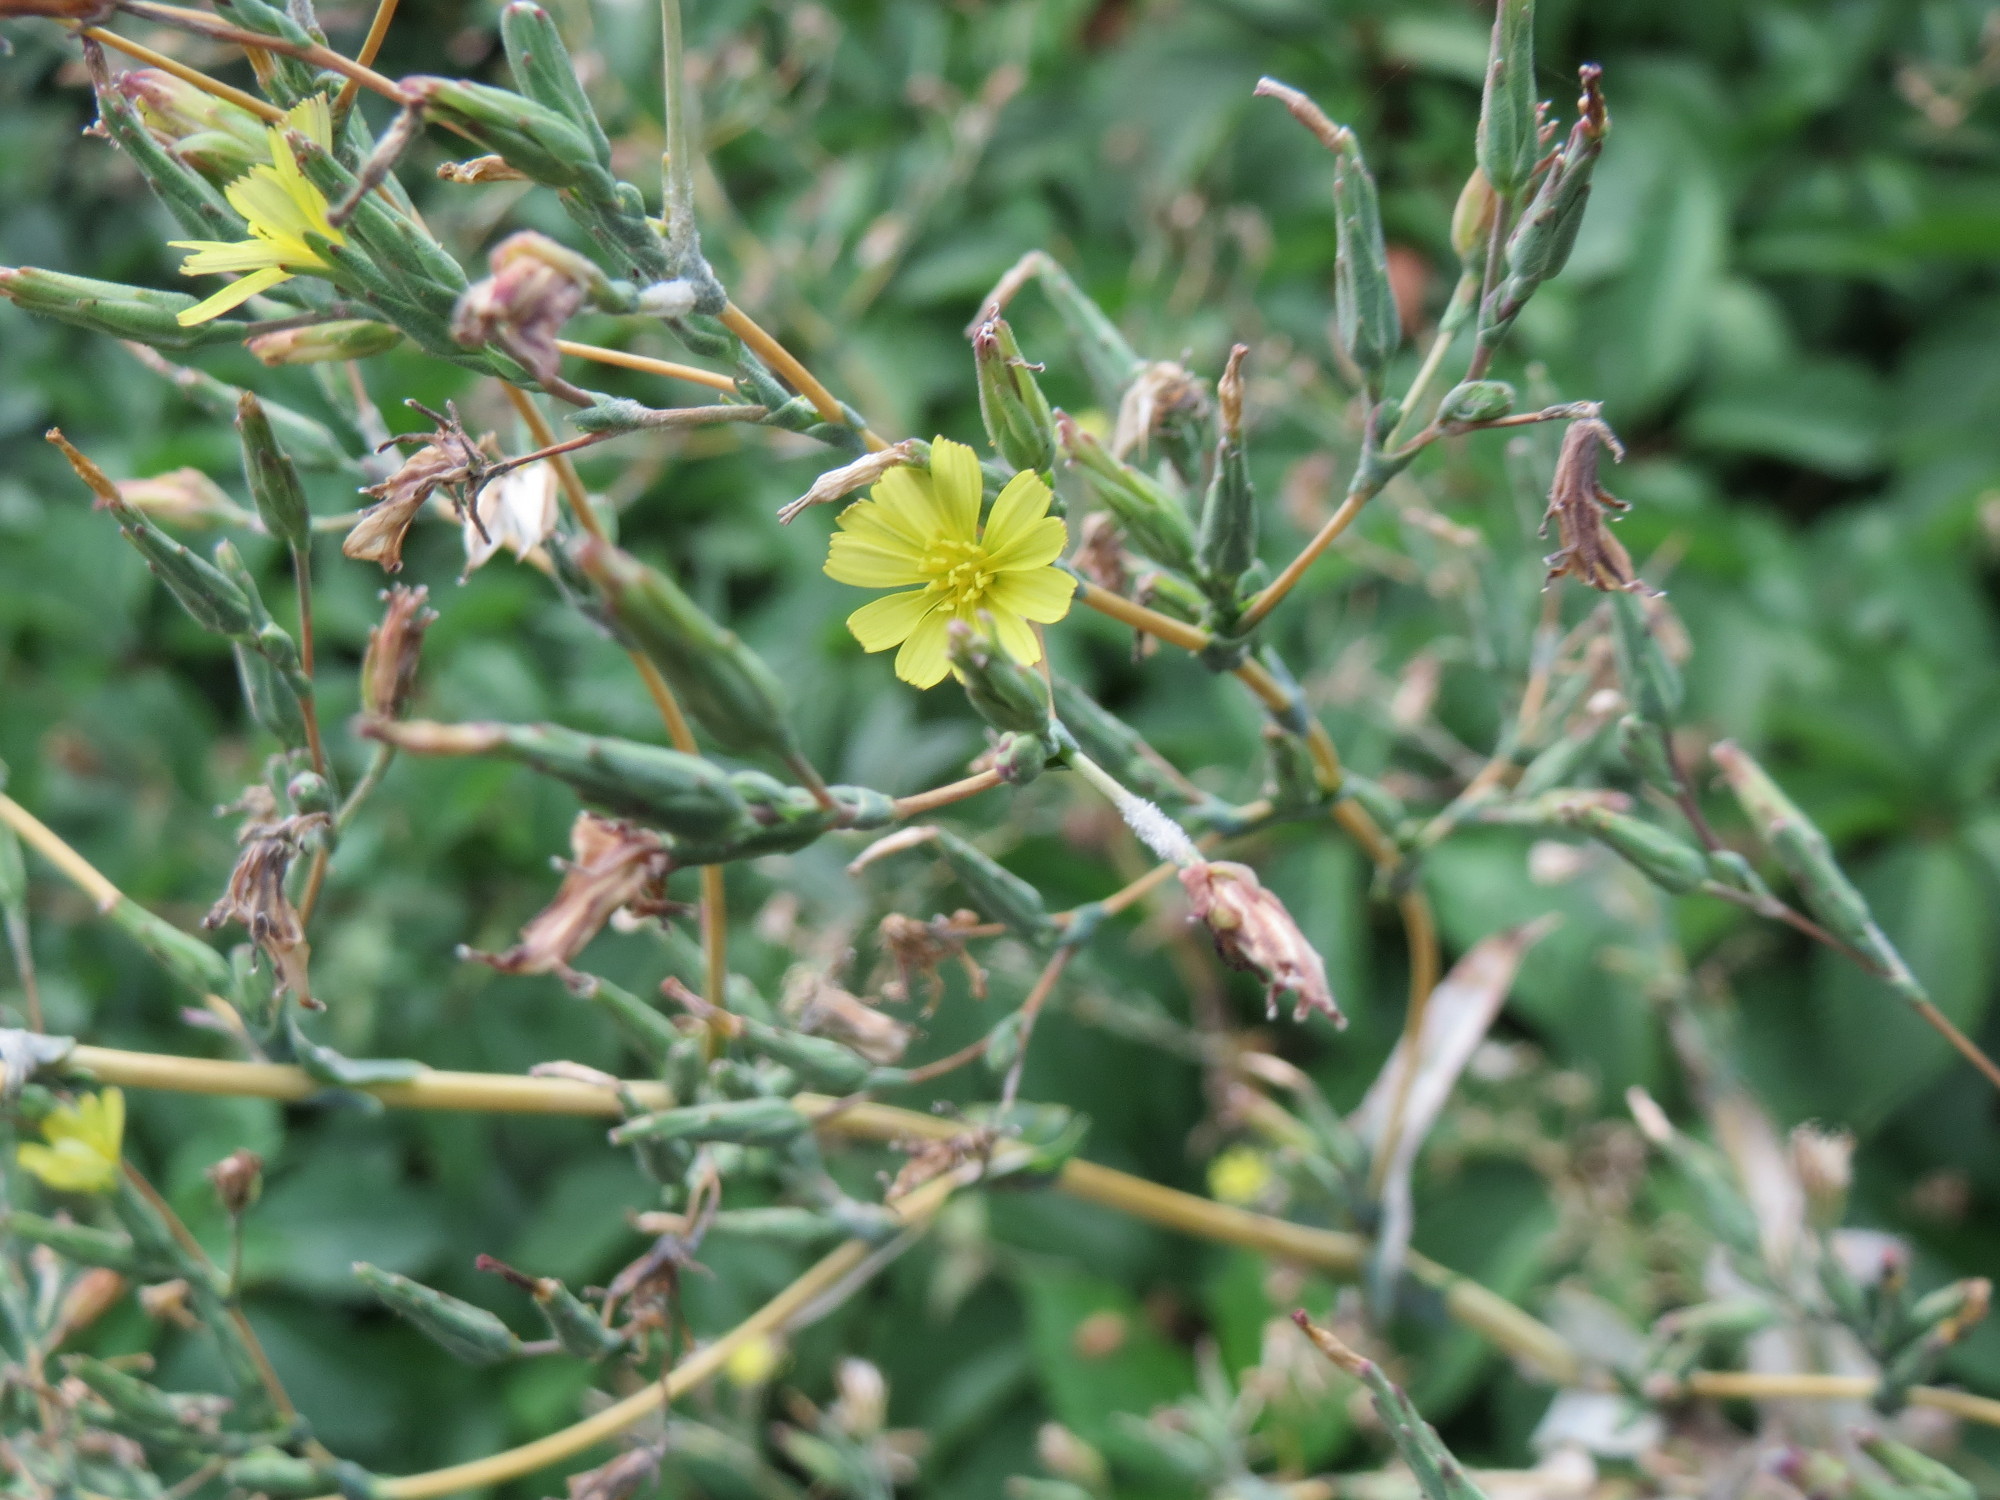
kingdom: Plantae
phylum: Tracheophyta
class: Magnoliopsida
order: Asterales
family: Asteraceae
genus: Lactuca
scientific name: Lactuca serriola
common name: Prickly lettuce
